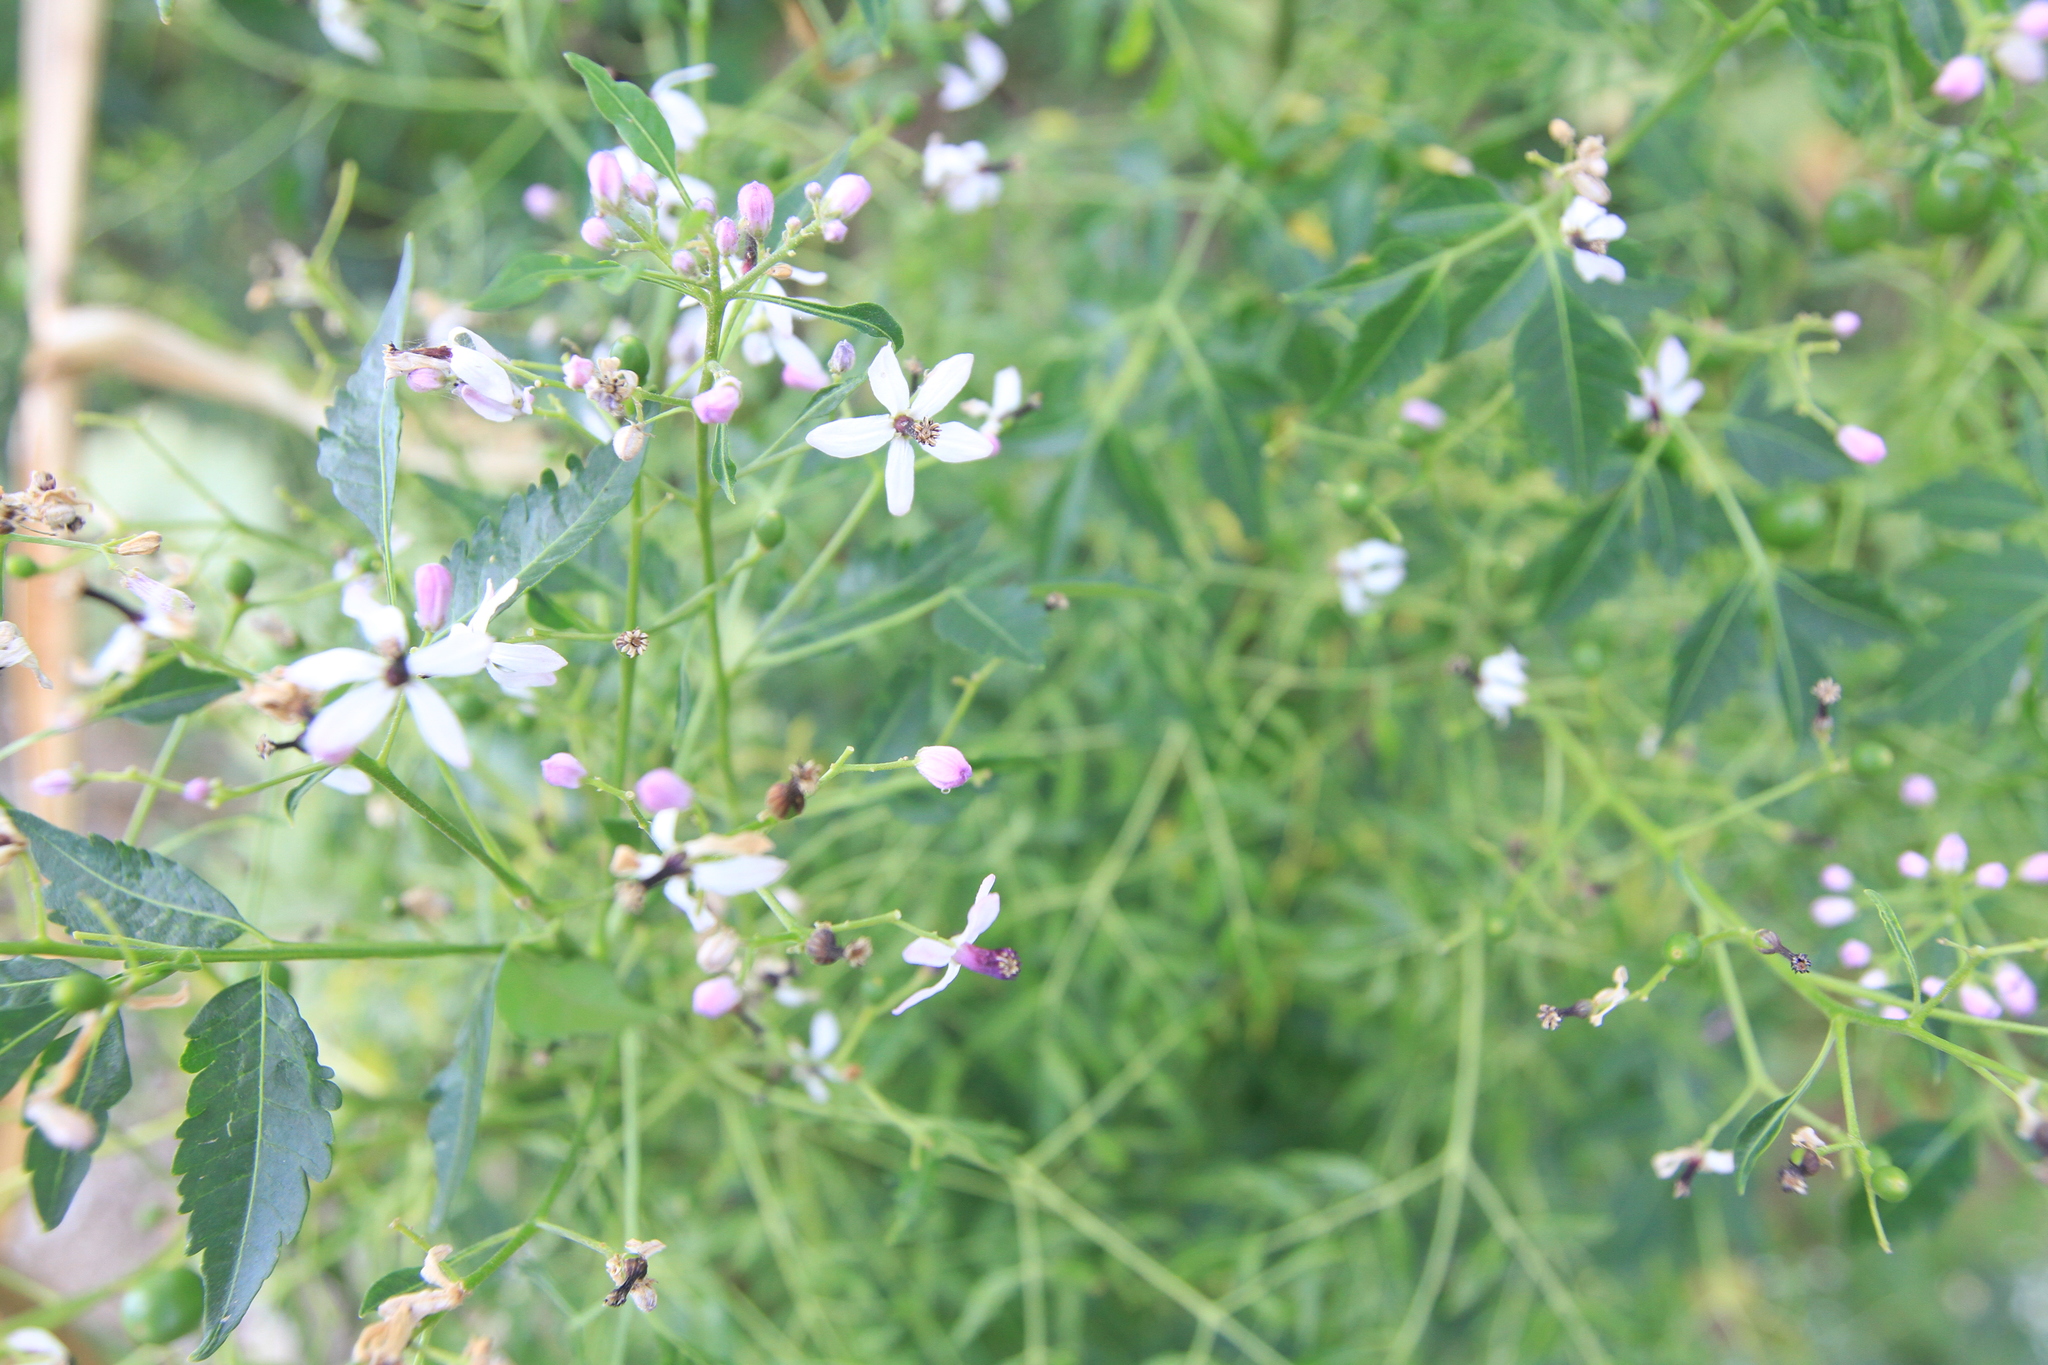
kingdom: Plantae
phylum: Tracheophyta
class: Magnoliopsida
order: Sapindales
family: Meliaceae
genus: Melia
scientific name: Melia azedarach
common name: Chinaberrytree
